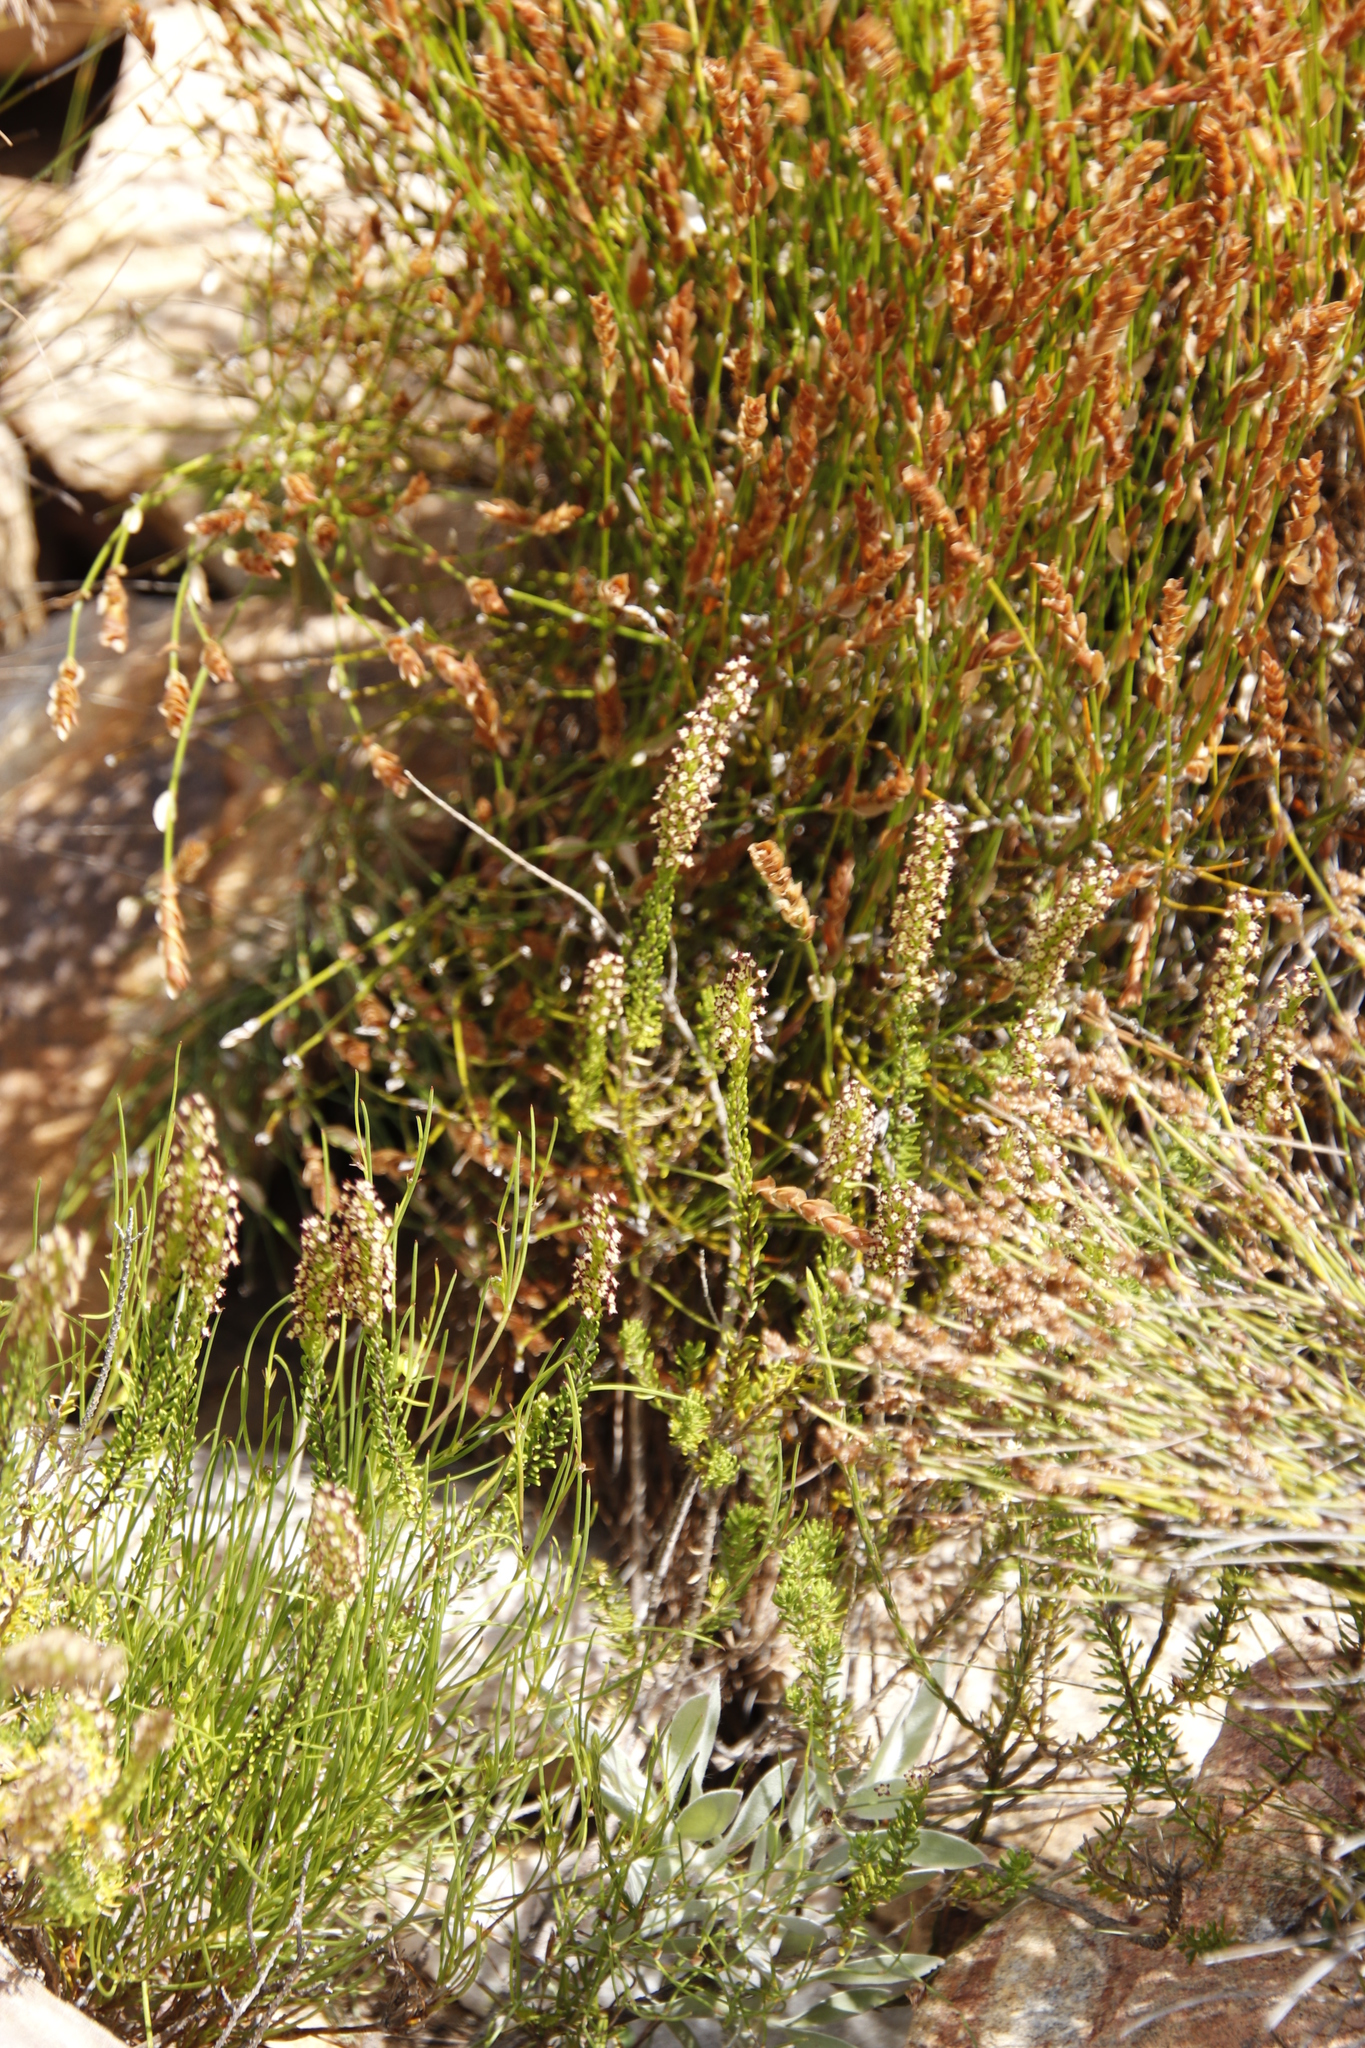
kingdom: Plantae
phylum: Tracheophyta
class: Magnoliopsida
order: Lamiales
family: Scrophulariaceae
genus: Microdon
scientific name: Microdon dubius
